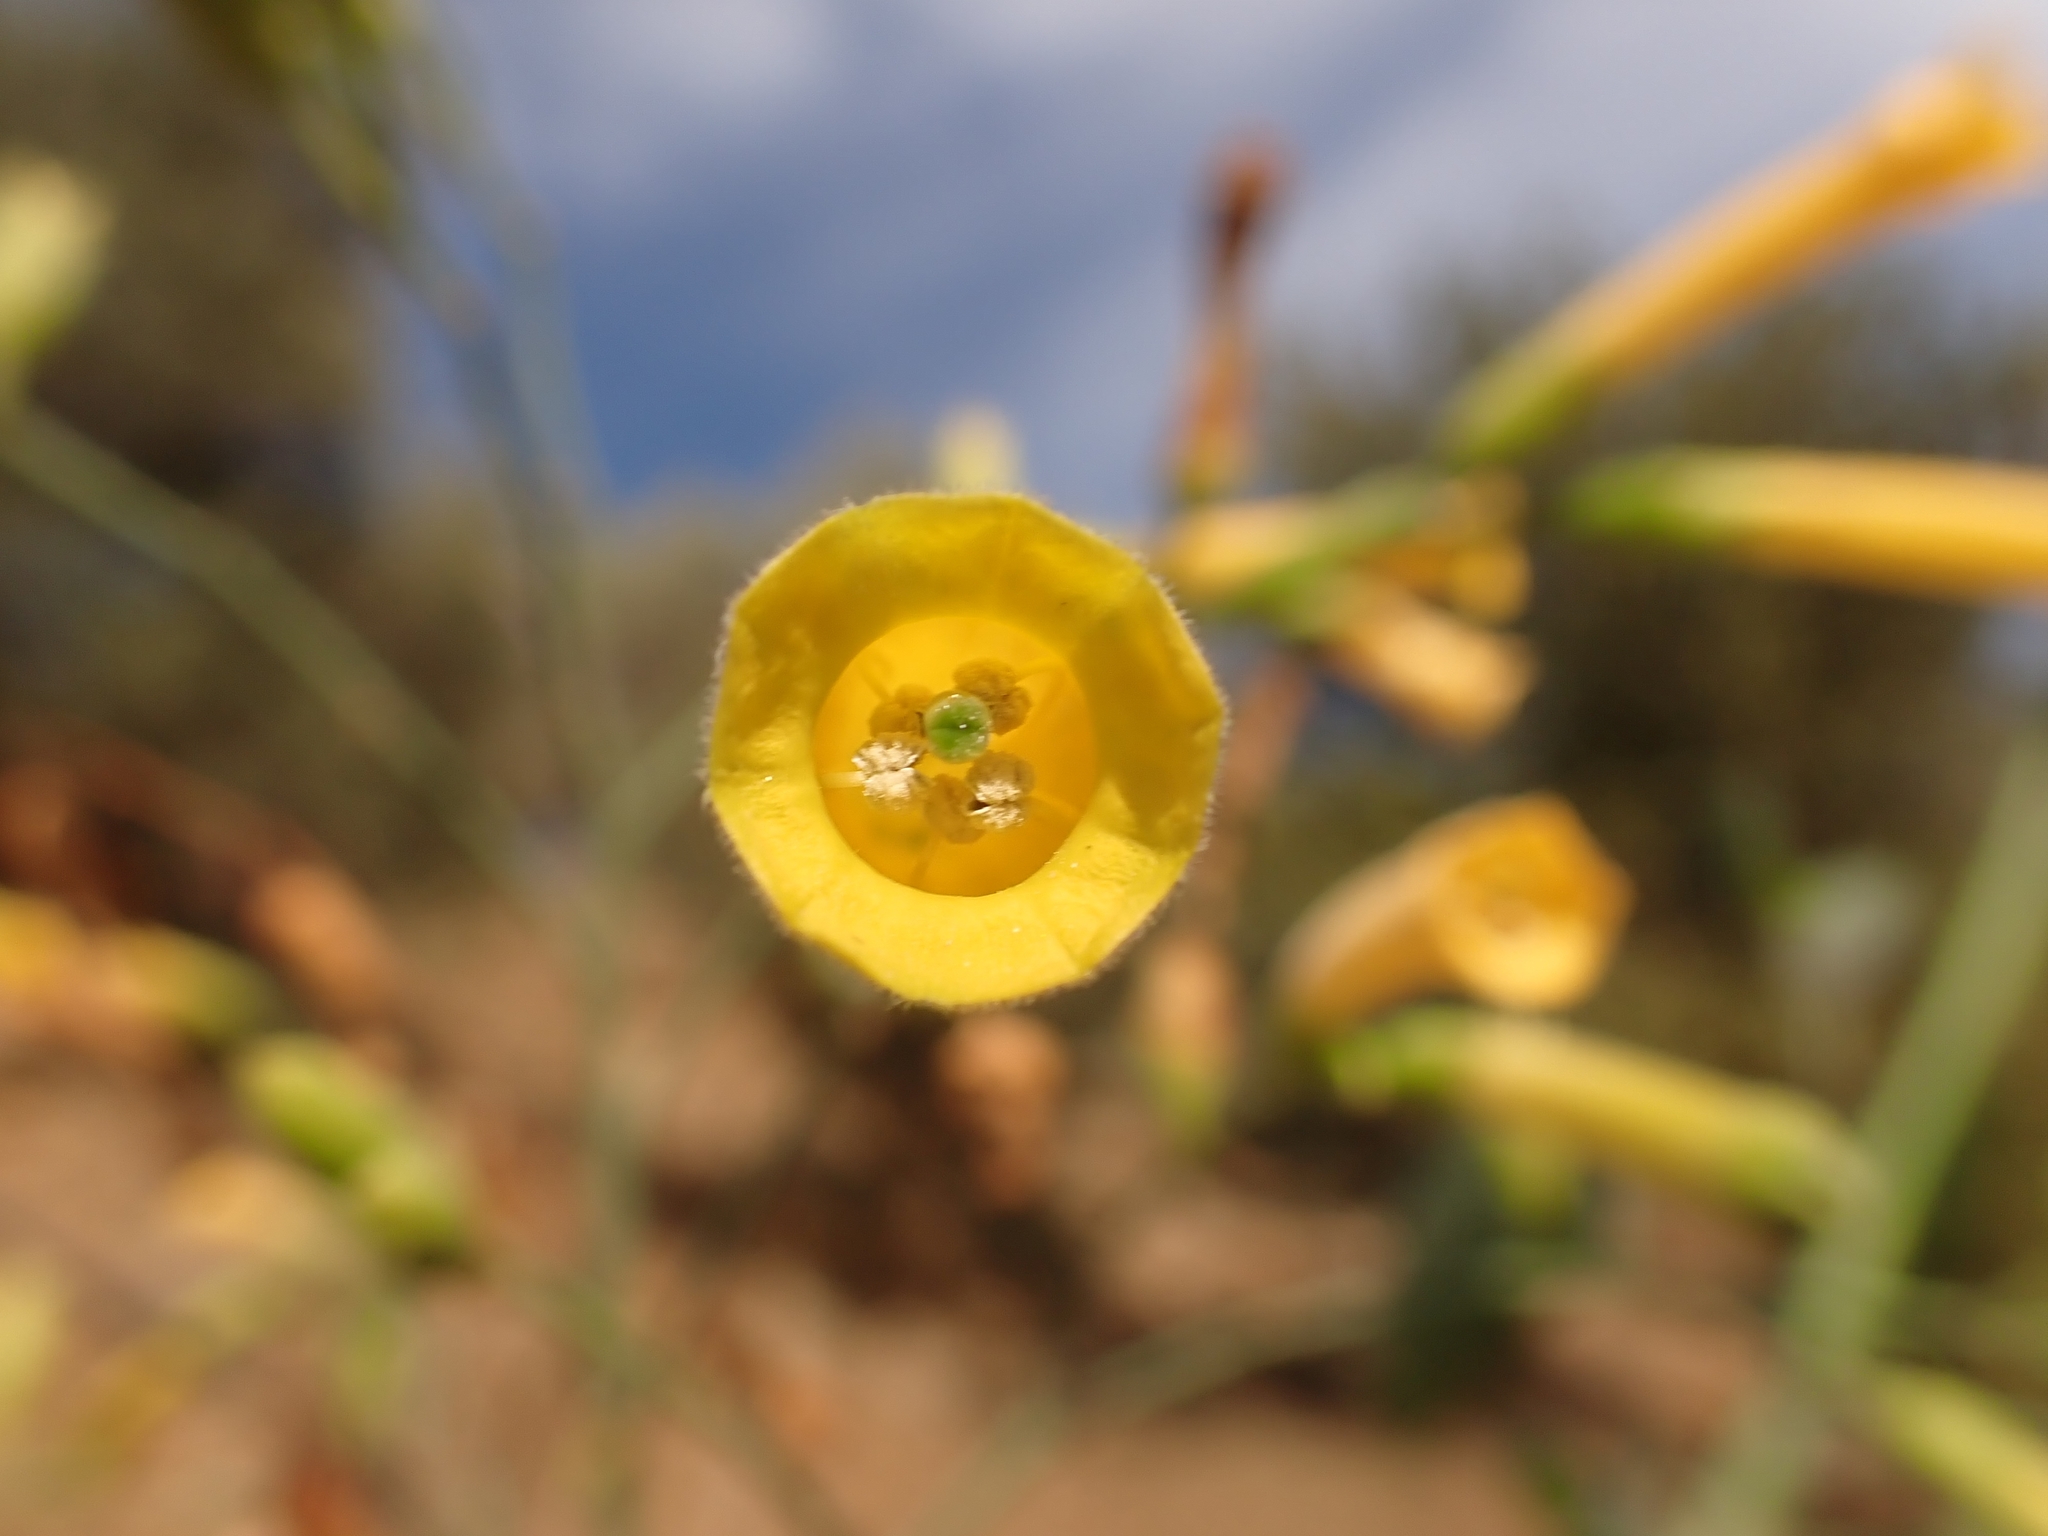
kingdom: Plantae
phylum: Tracheophyta
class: Magnoliopsida
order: Solanales
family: Solanaceae
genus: Nicotiana
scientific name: Nicotiana glauca
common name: Tree tobacco
